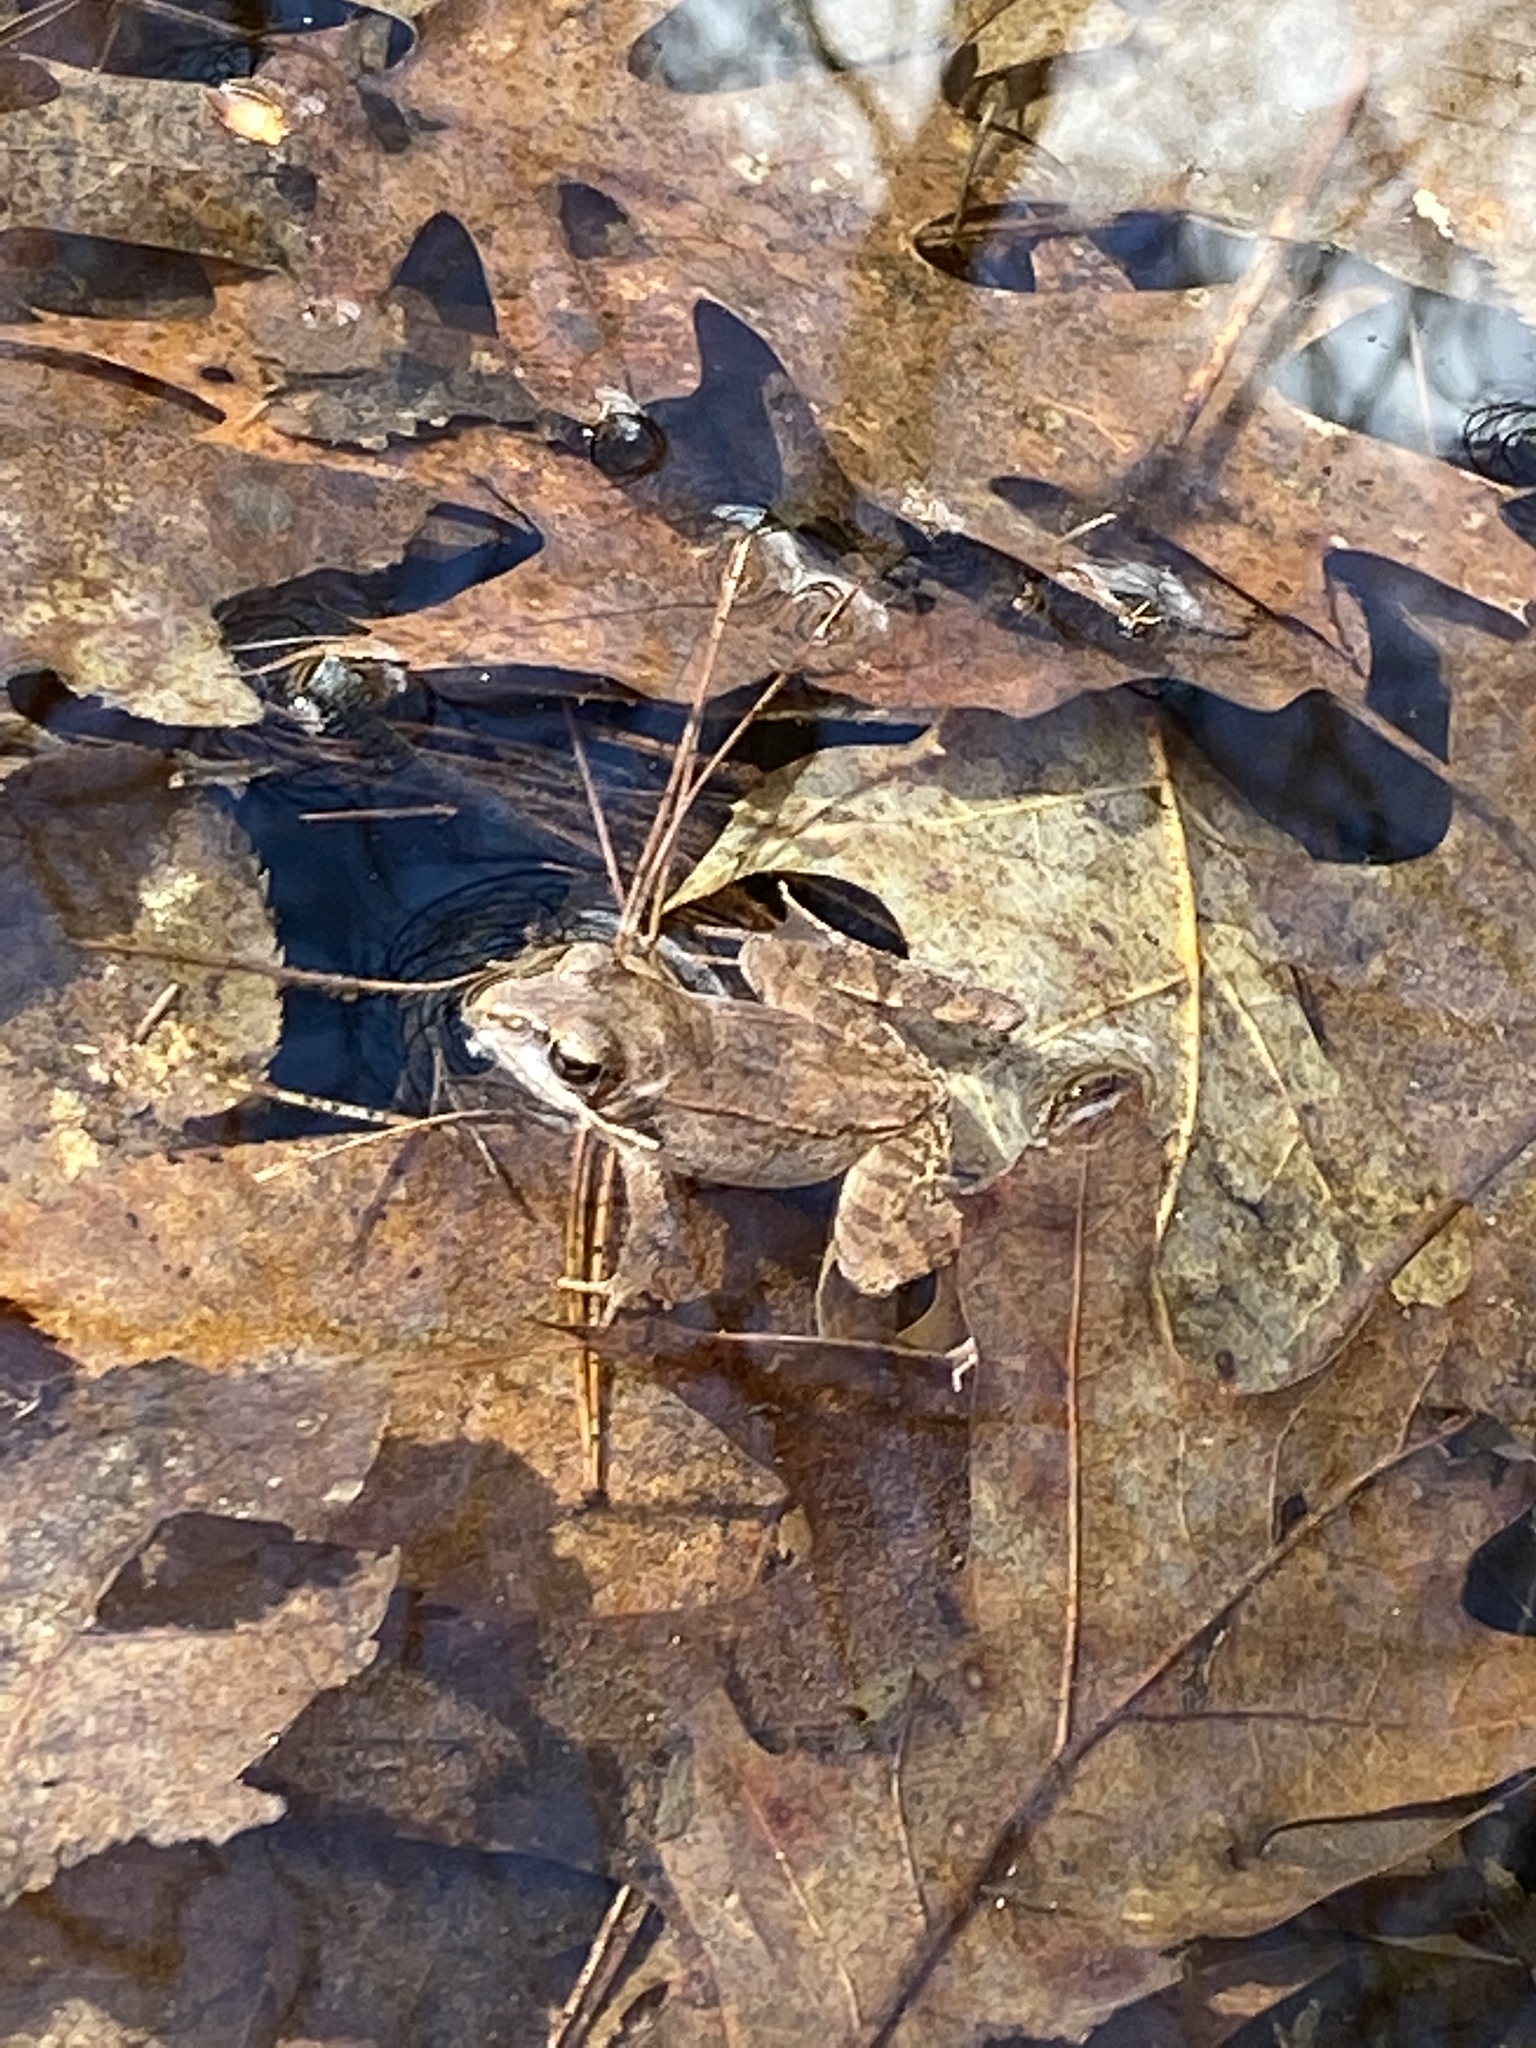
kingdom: Animalia
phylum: Chordata
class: Amphibia
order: Anura
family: Ranidae
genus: Lithobates
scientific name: Lithobates sylvaticus
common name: Wood frog
